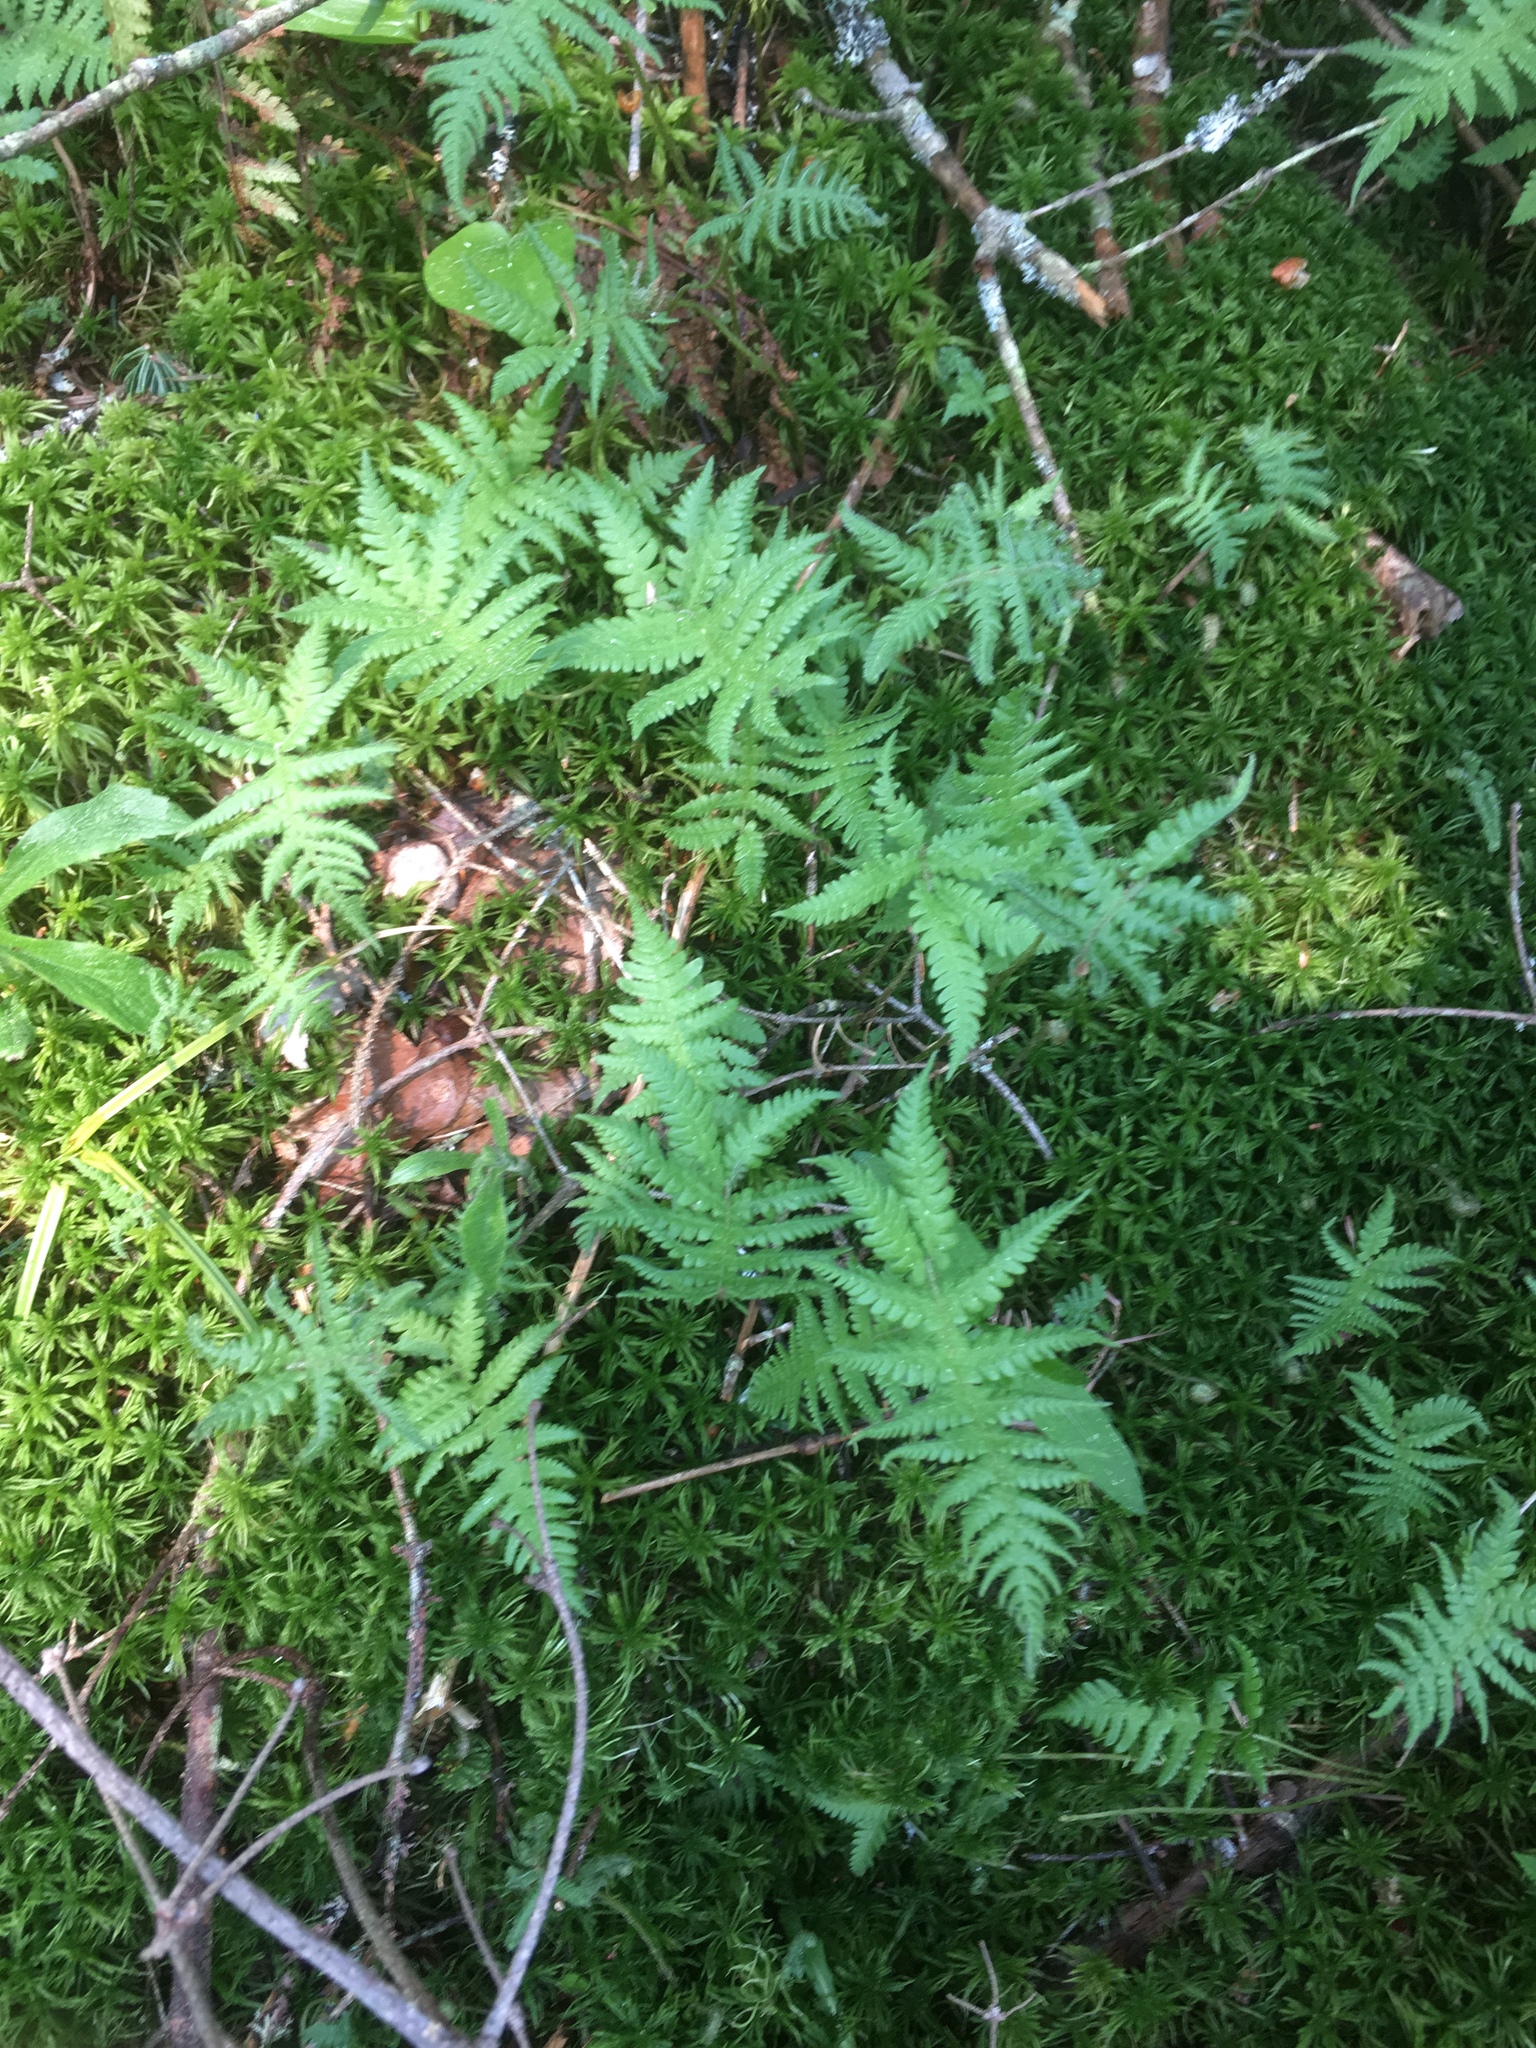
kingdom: Plantae
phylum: Tracheophyta
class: Polypodiopsida
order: Polypodiales
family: Thelypteridaceae
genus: Phegopteris
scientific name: Phegopteris connectilis
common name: Beech fern
